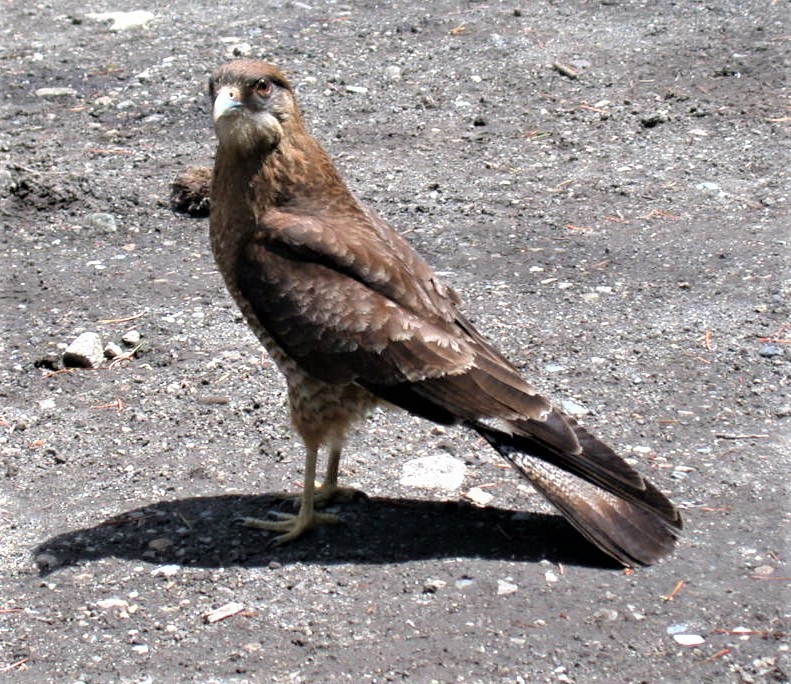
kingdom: Animalia
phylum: Chordata
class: Aves
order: Falconiformes
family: Falconidae
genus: Daptrius
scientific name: Daptrius
